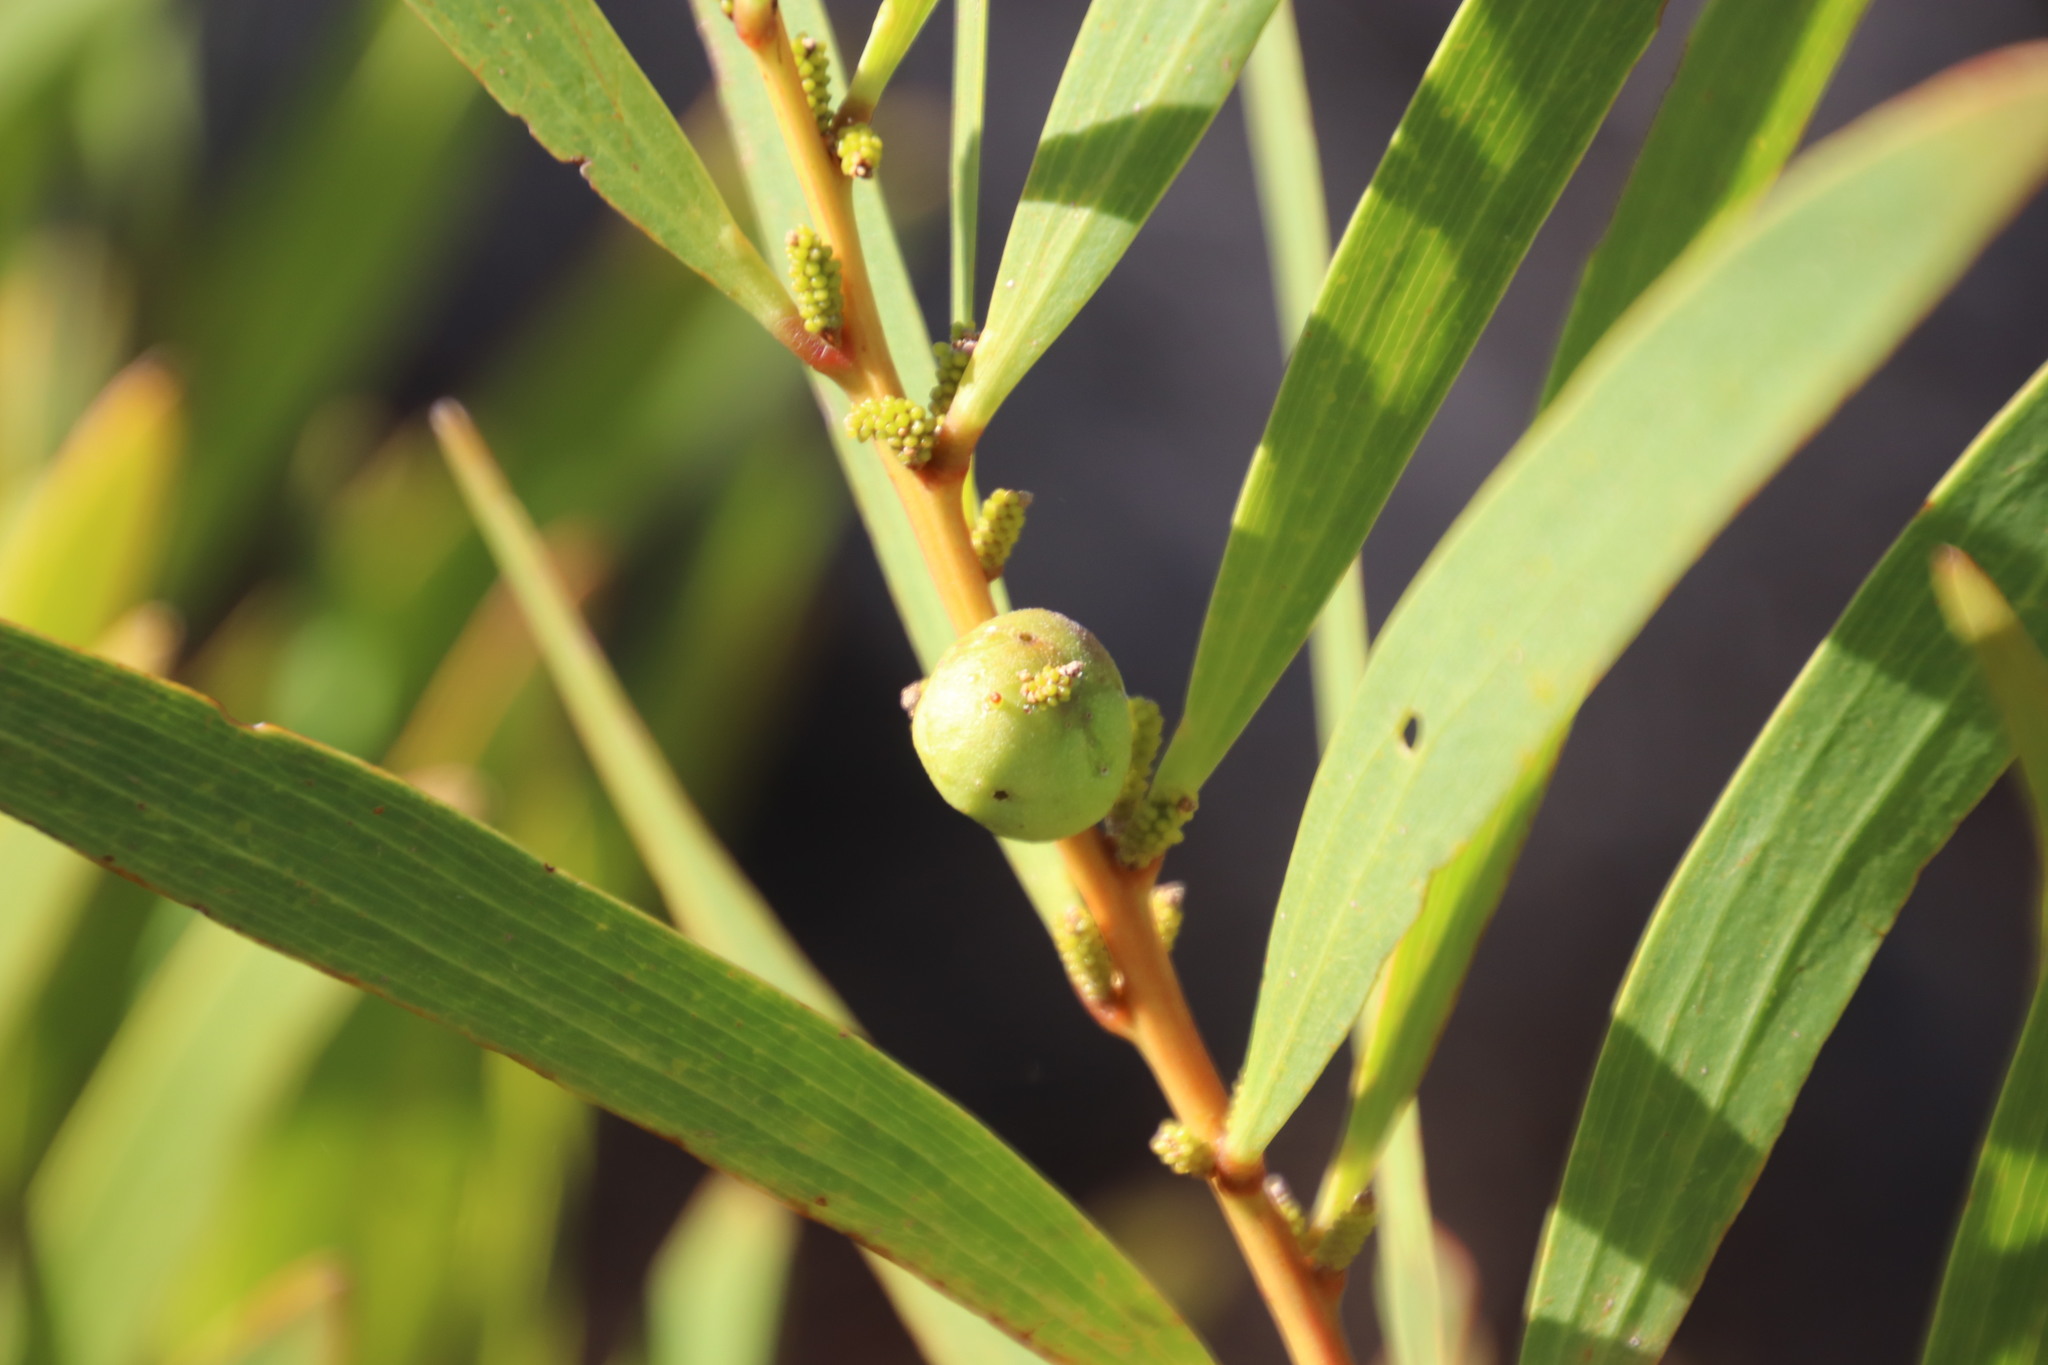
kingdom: Animalia
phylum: Arthropoda
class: Insecta
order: Hymenoptera
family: Pteromalidae
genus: Trichilogaster
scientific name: Trichilogaster acaciaelongifoliae
